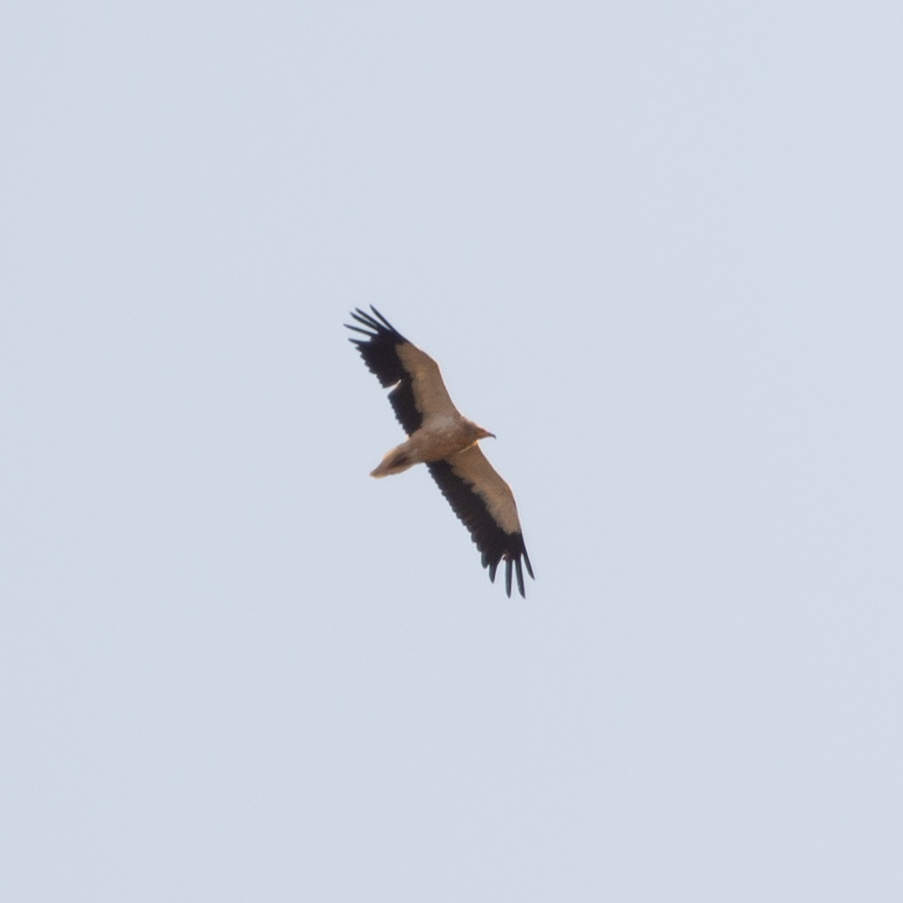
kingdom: Animalia
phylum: Chordata
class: Aves
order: Accipitriformes
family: Accipitridae
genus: Neophron
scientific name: Neophron percnopterus
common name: Egyptian vulture
